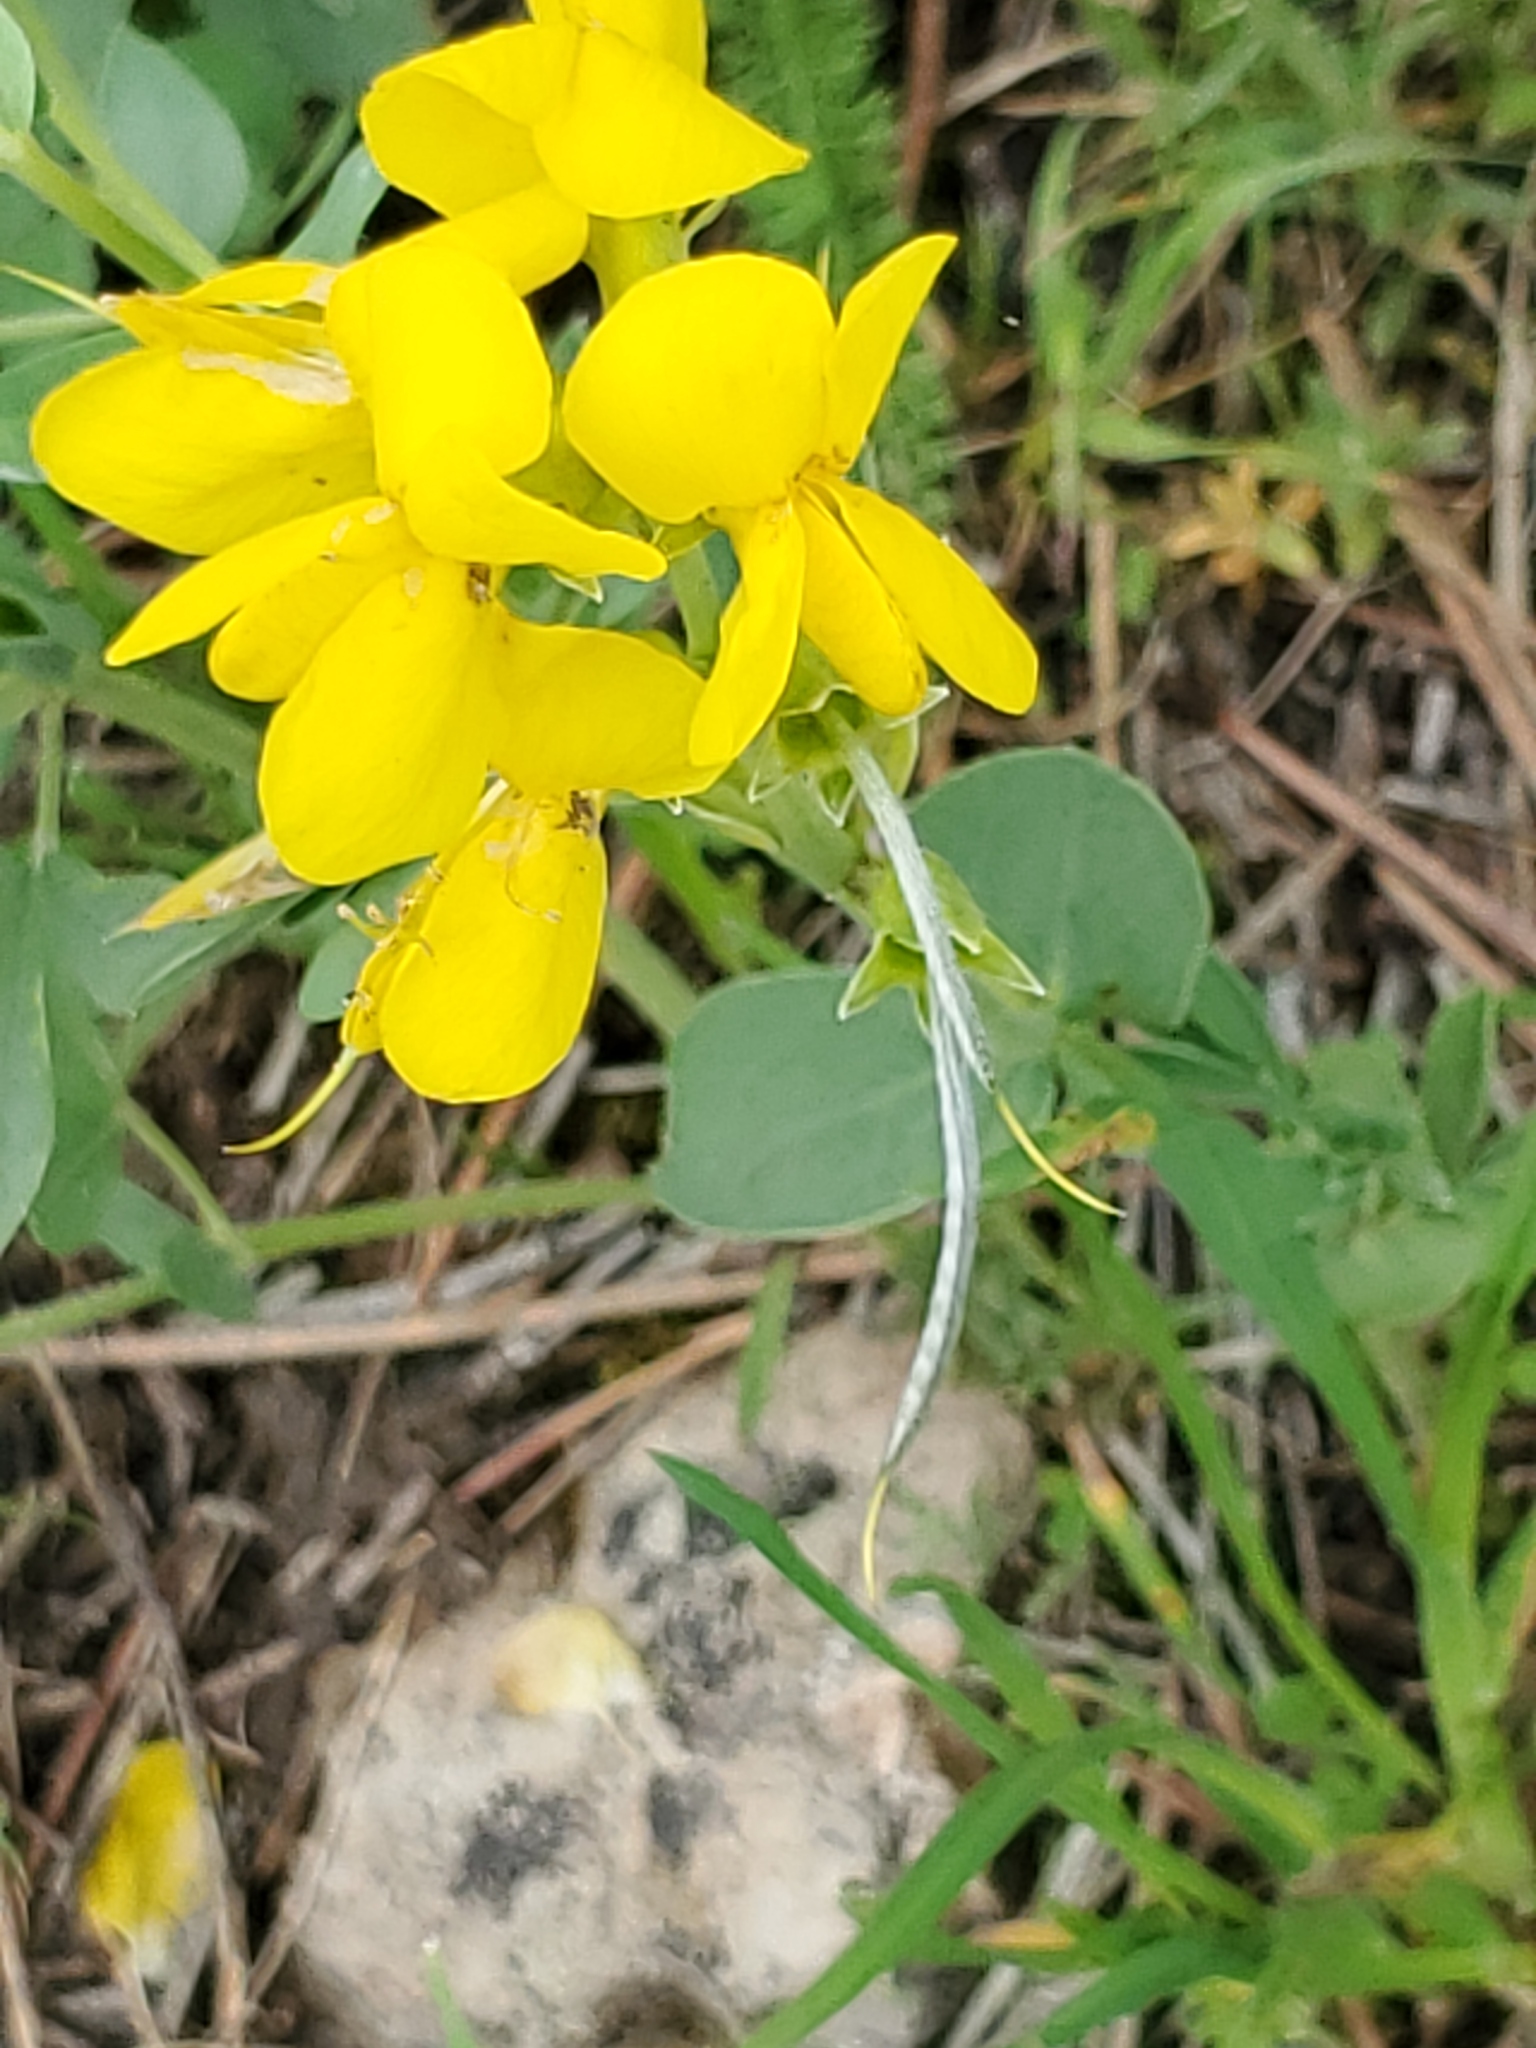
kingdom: Plantae
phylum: Tracheophyta
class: Magnoliopsida
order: Fabales
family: Fabaceae
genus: Thermopsis
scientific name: Thermopsis rhombifolia
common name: Circle-pod-pea
